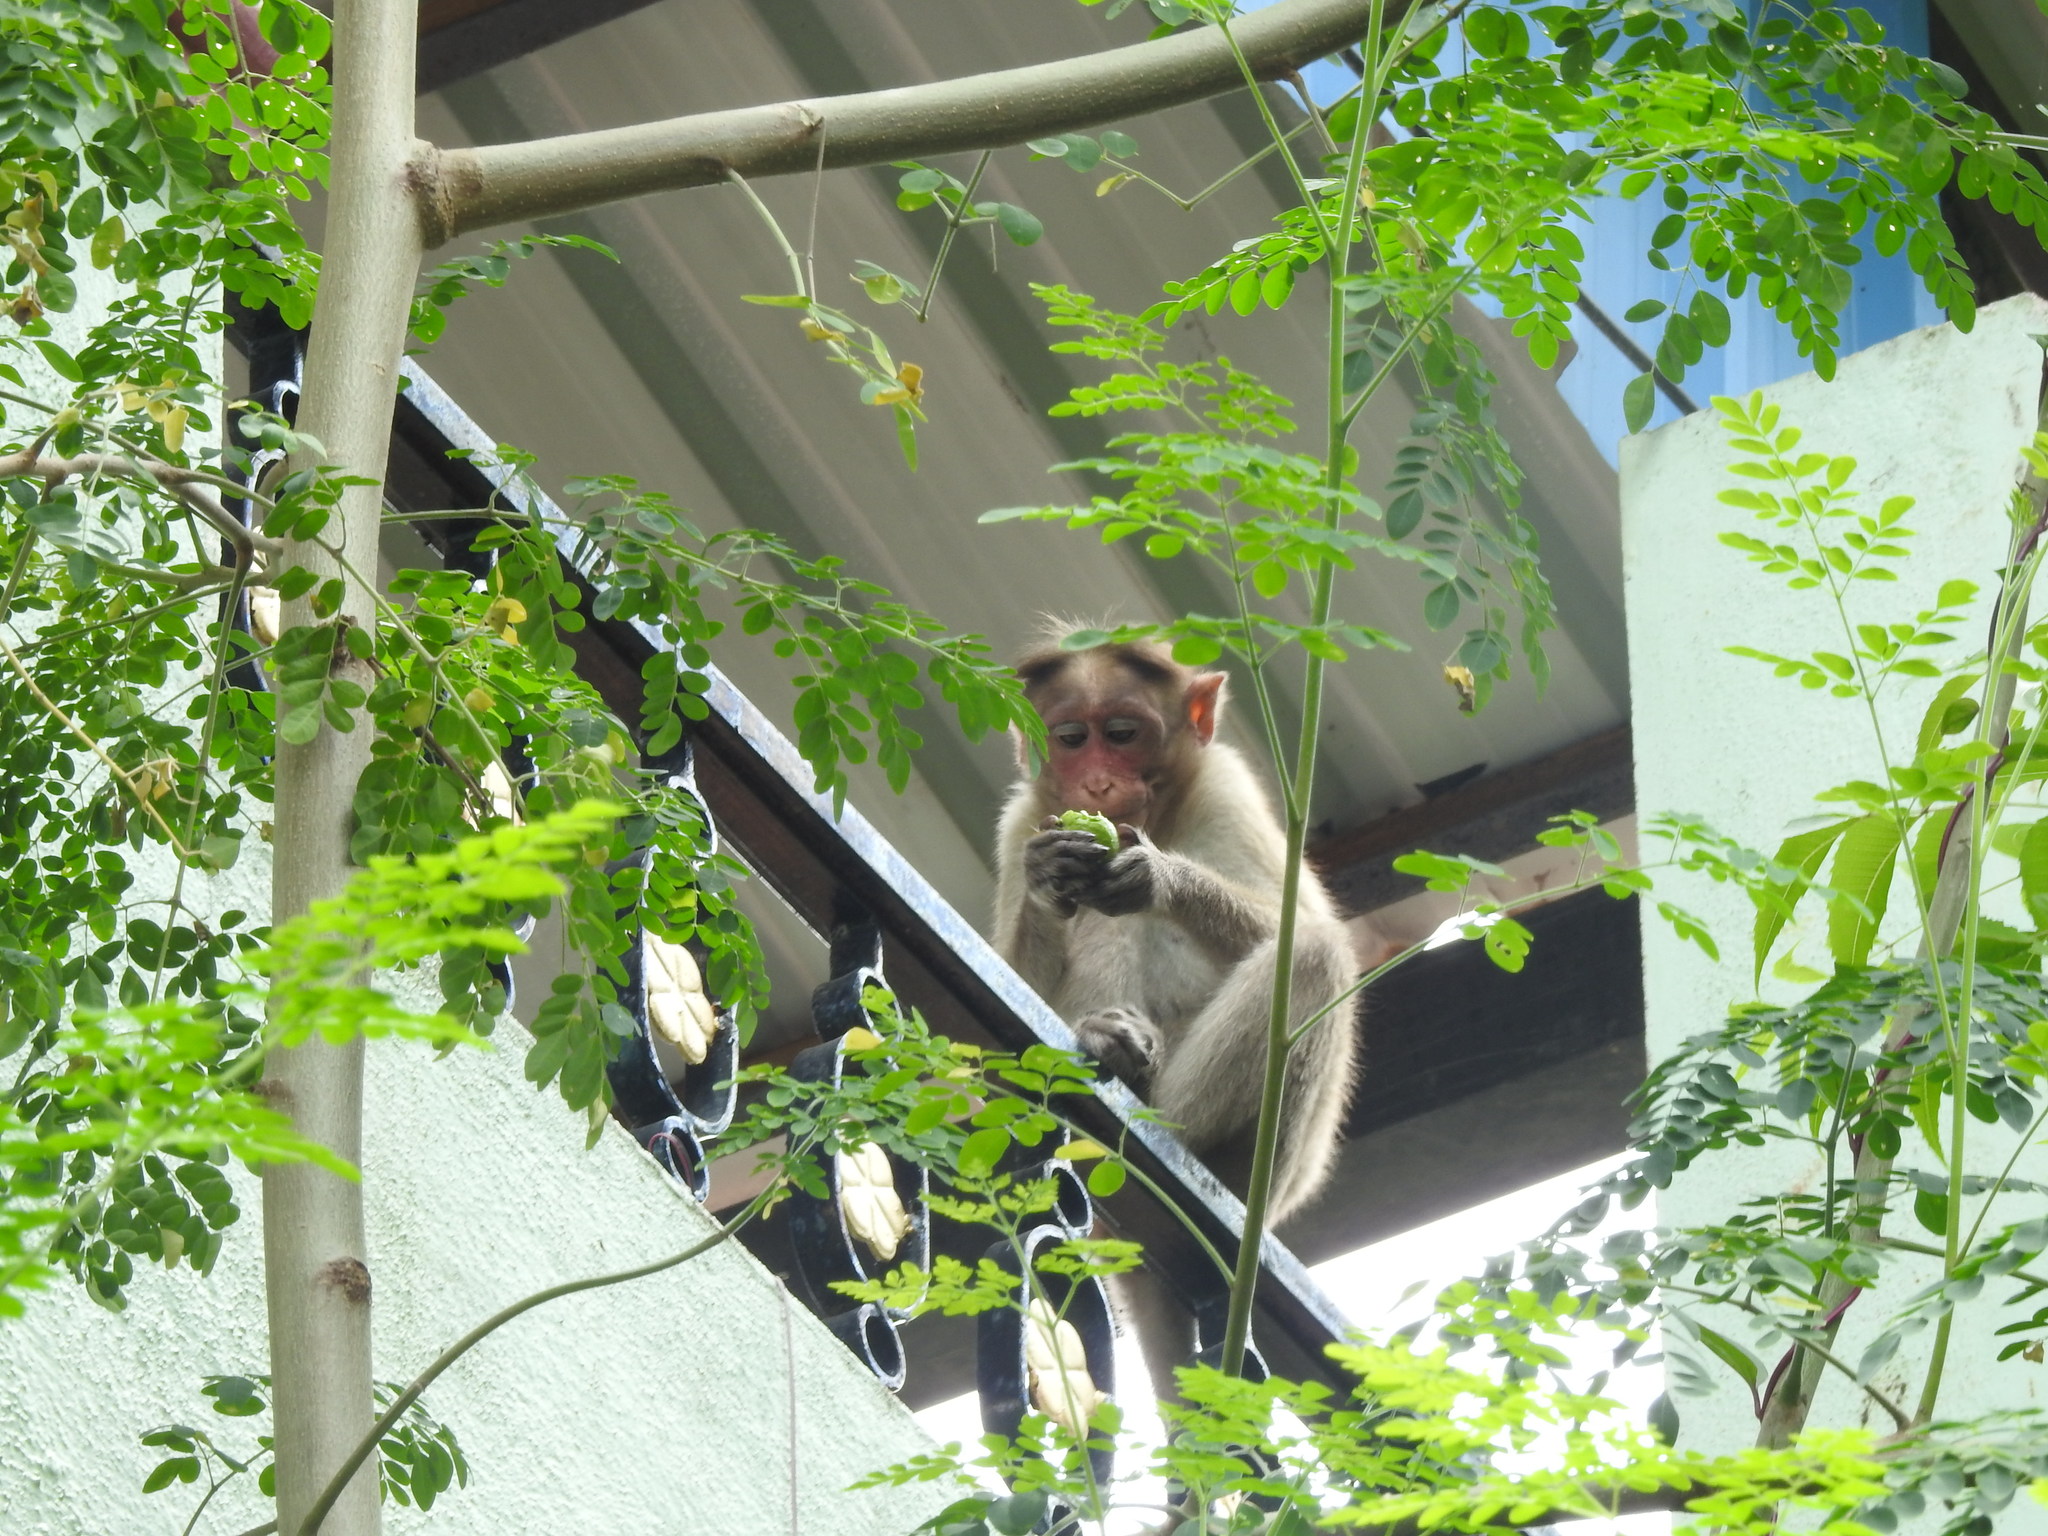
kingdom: Animalia
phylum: Chordata
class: Mammalia
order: Primates
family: Cercopithecidae
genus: Macaca
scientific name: Macaca radiata
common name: Bonnet macaque
